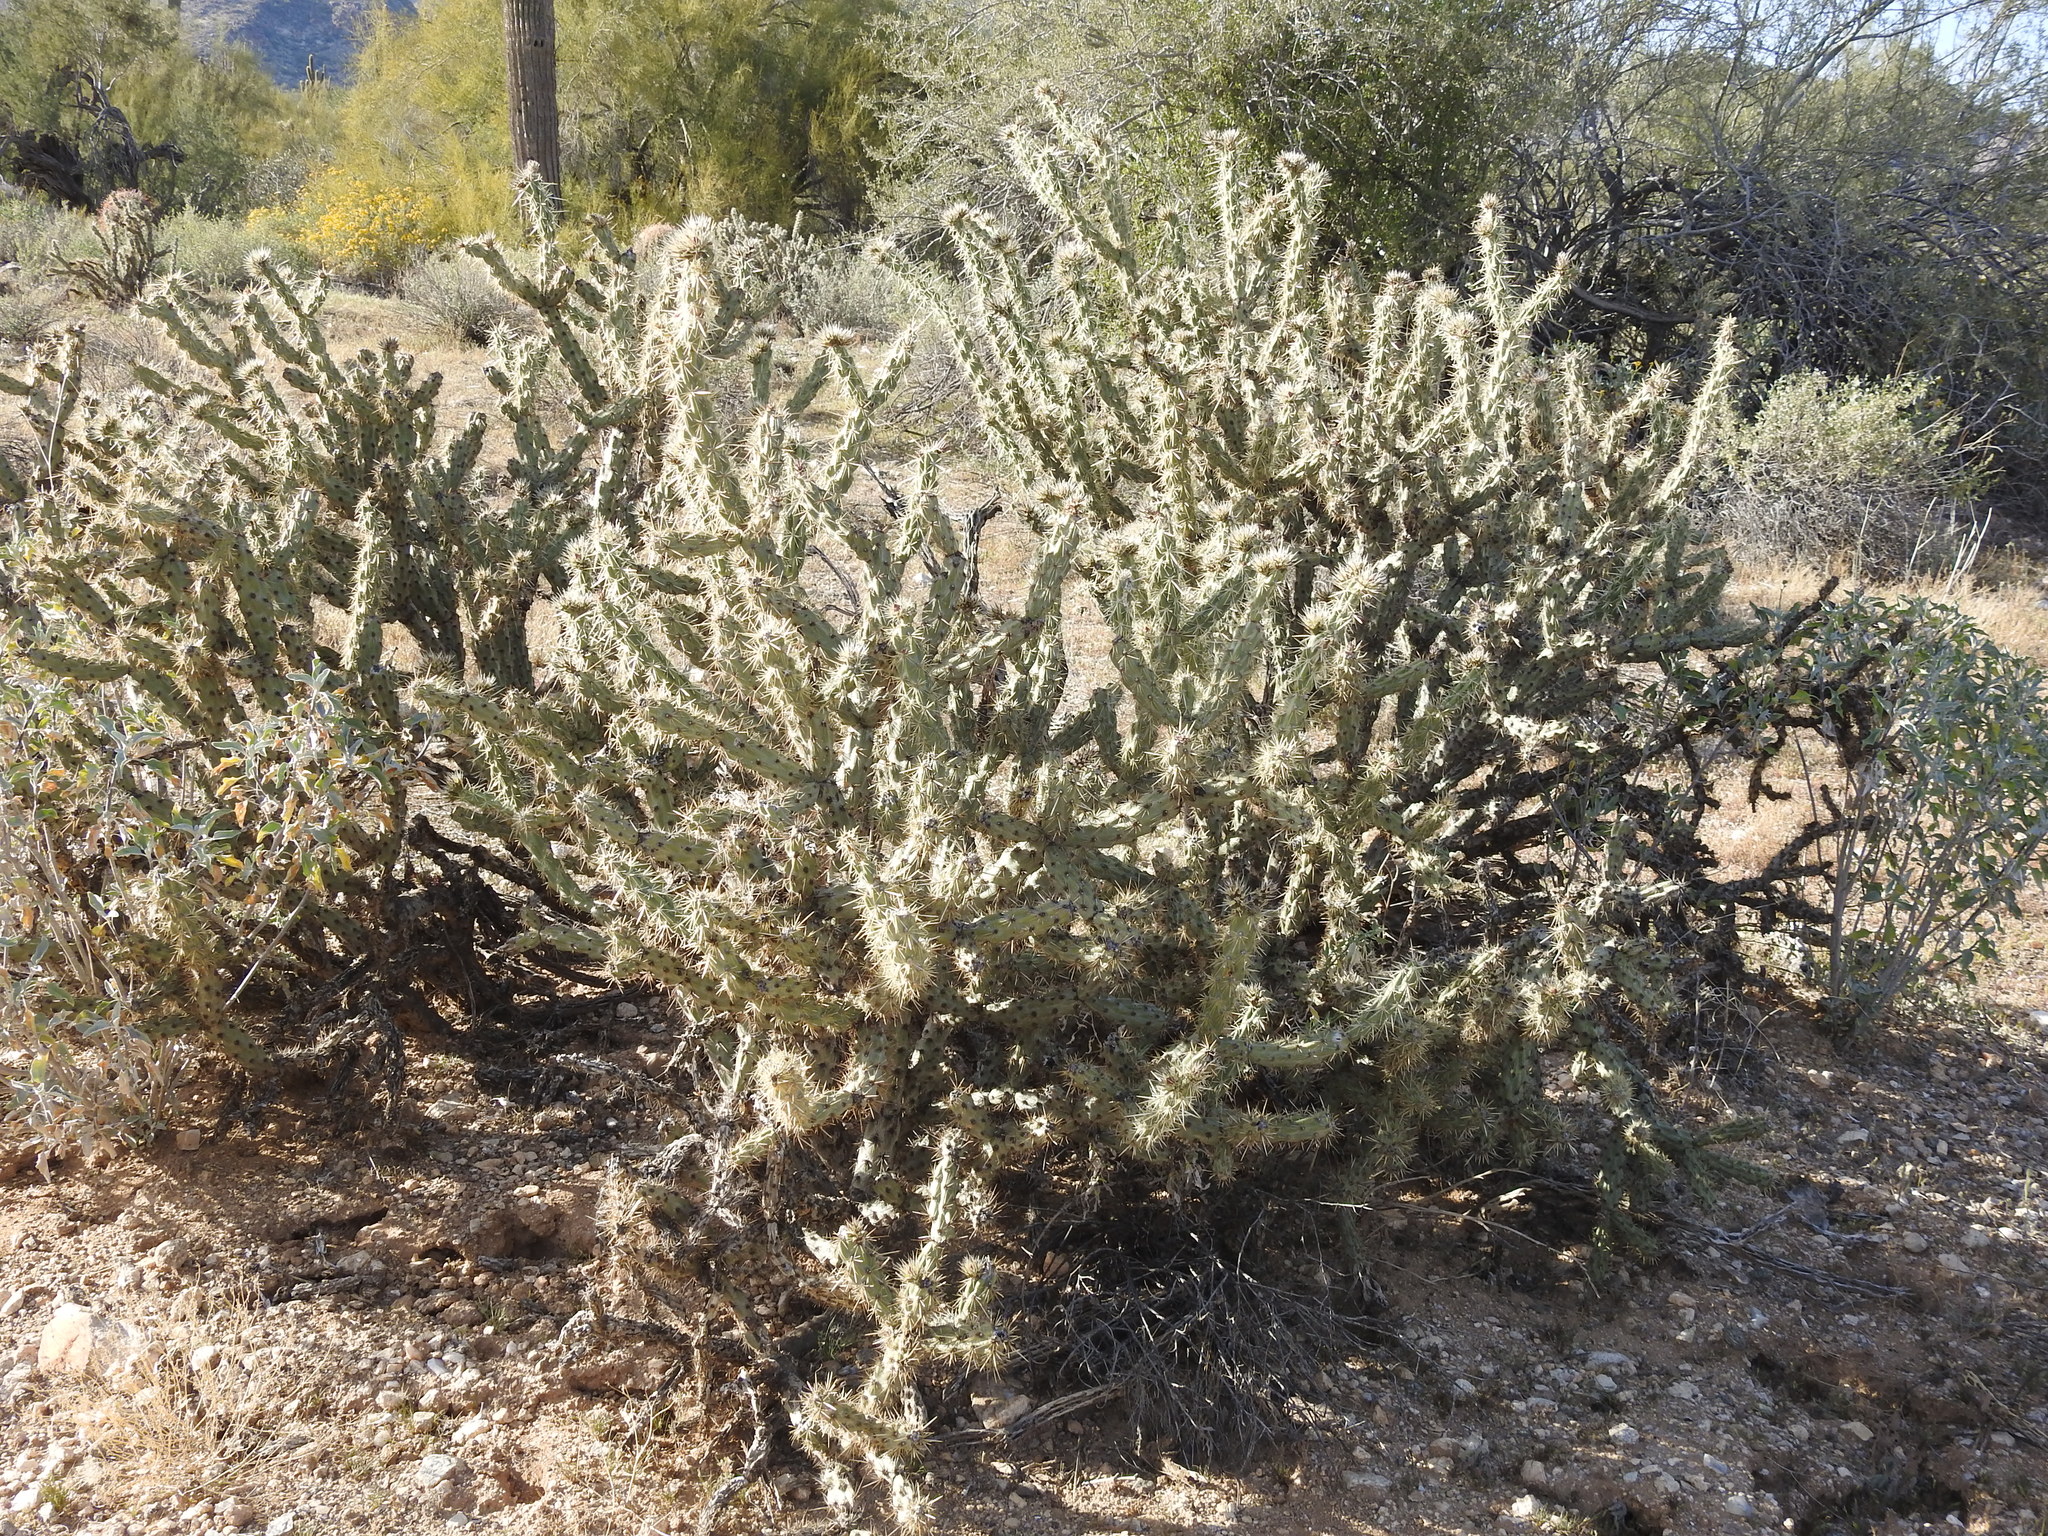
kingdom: Plantae
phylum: Tracheophyta
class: Magnoliopsida
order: Caryophyllales
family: Cactaceae
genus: Cylindropuntia
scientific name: Cylindropuntia acanthocarpa
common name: Buckhorn cholla
